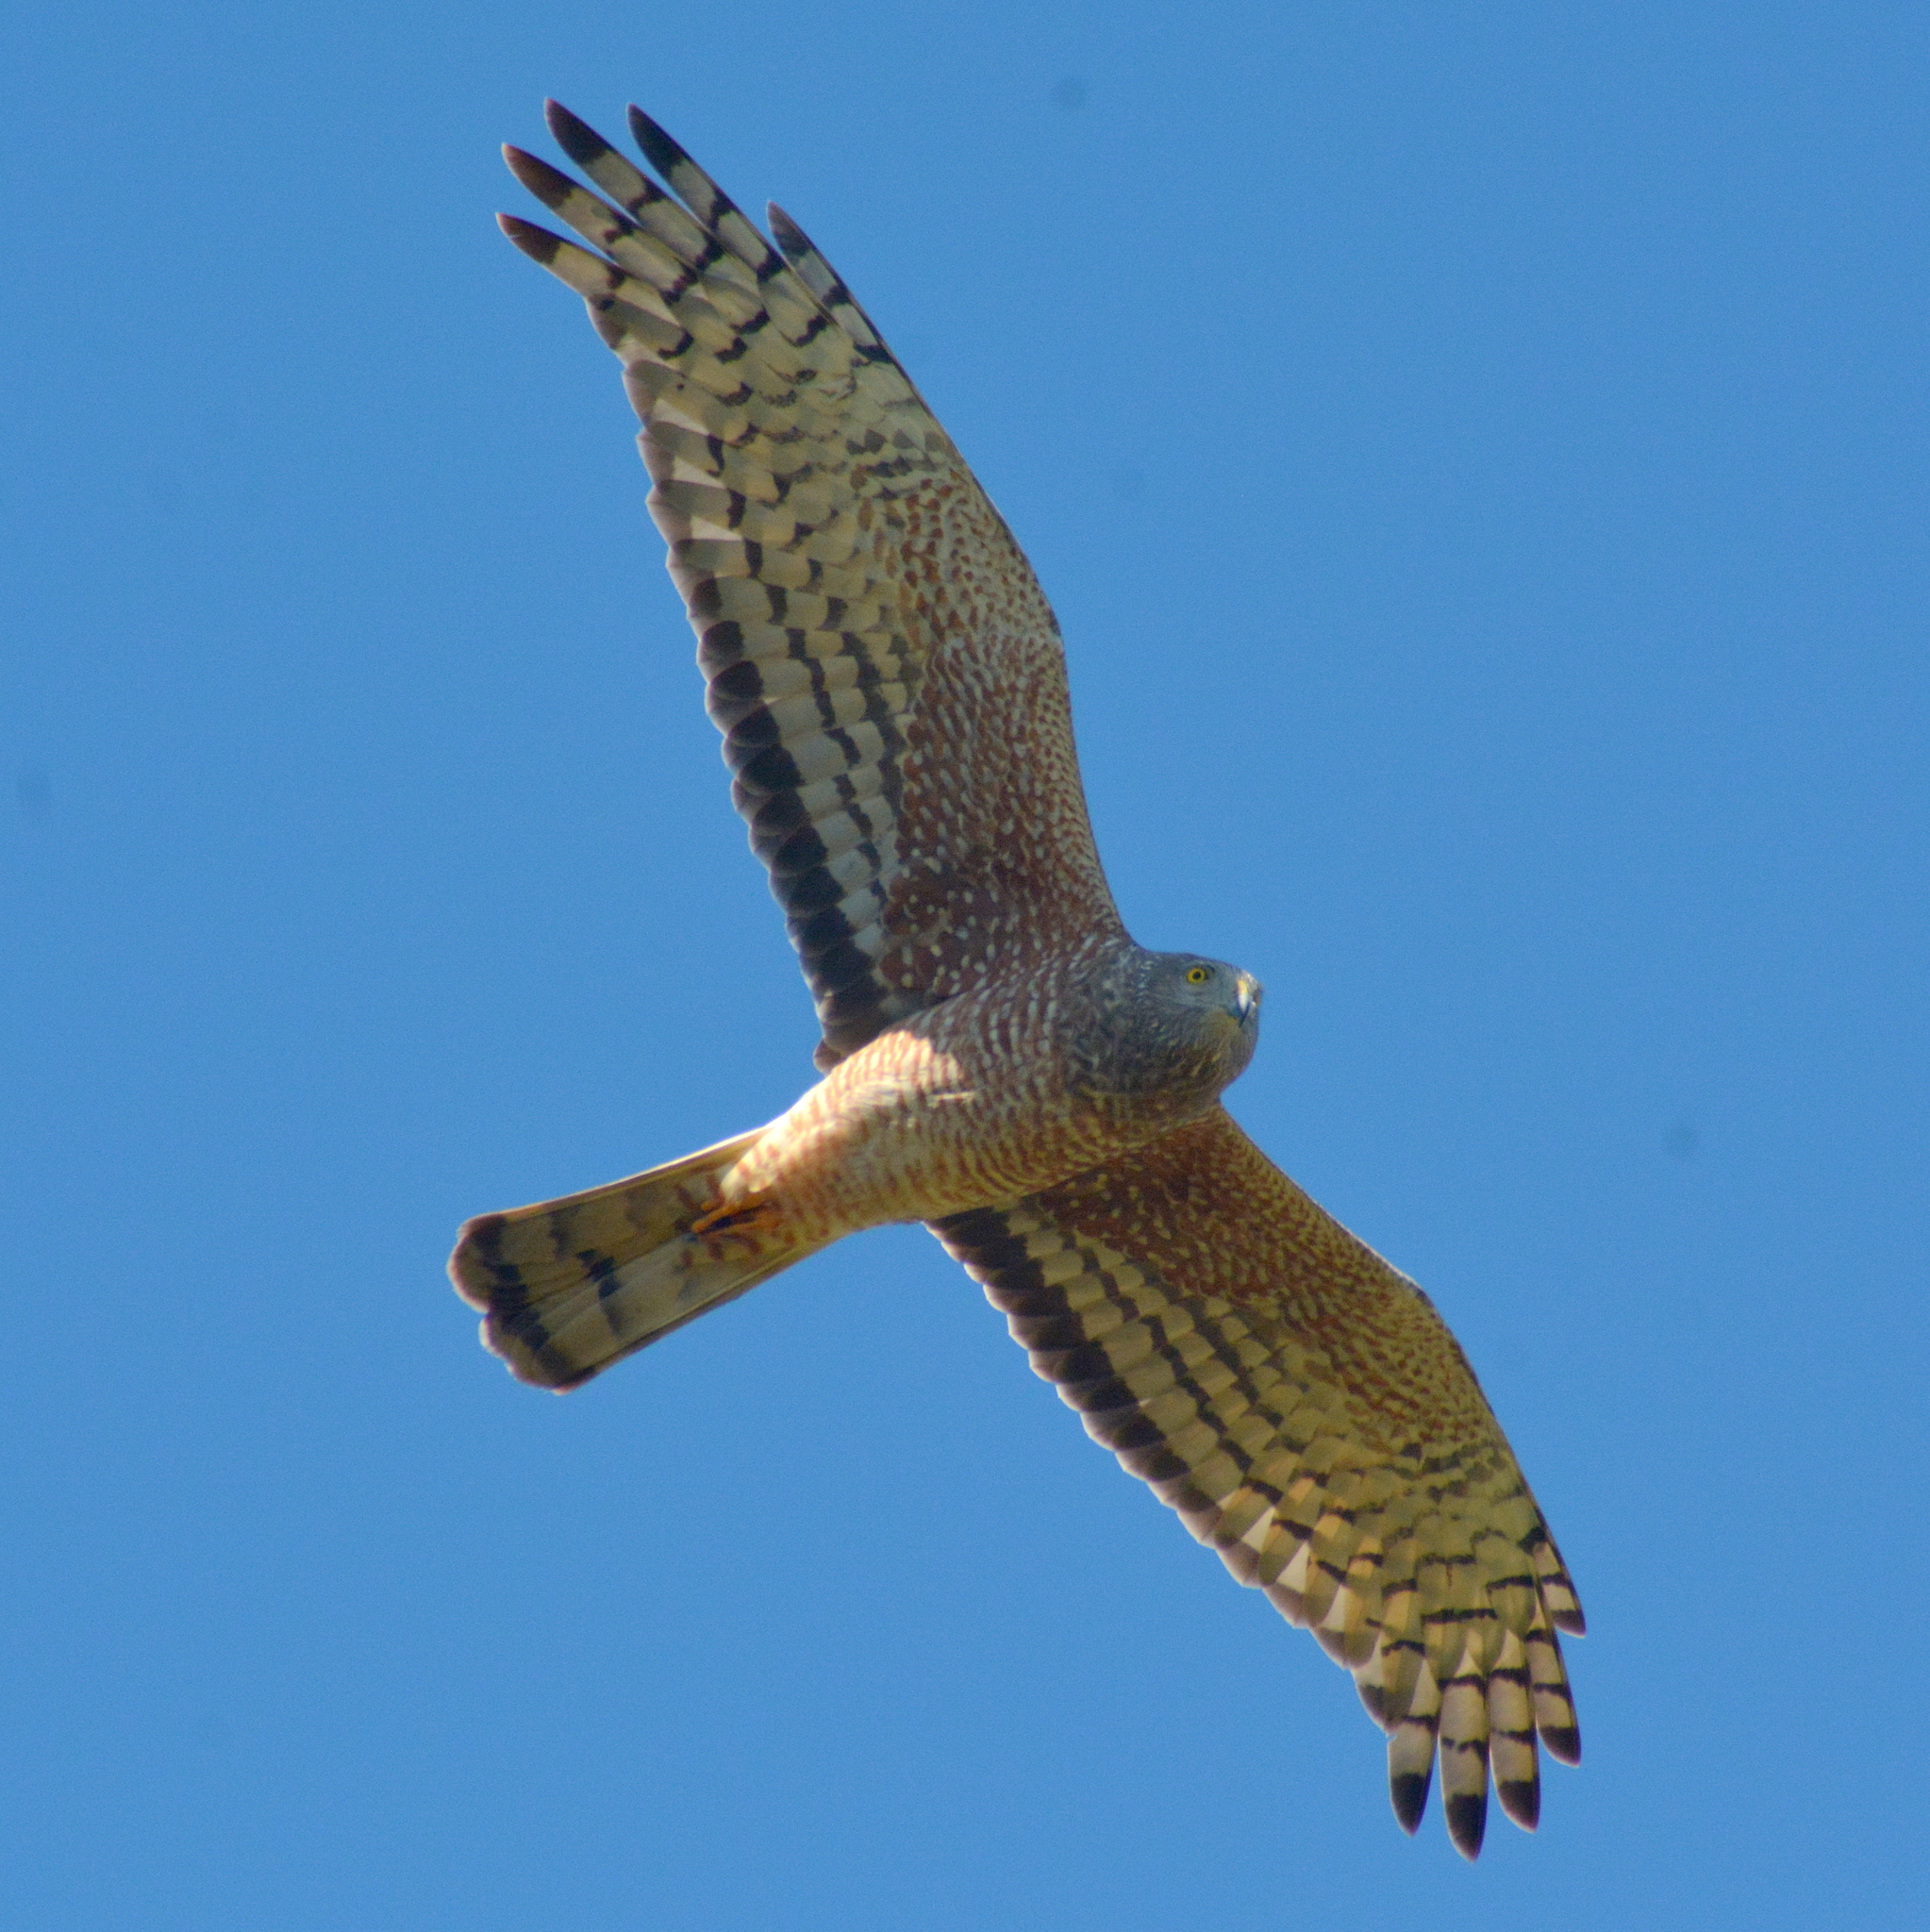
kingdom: Animalia
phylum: Chordata
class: Aves
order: Accipitriformes
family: Accipitridae
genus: Circus
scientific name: Circus cinereus
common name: Cinereous harrier
